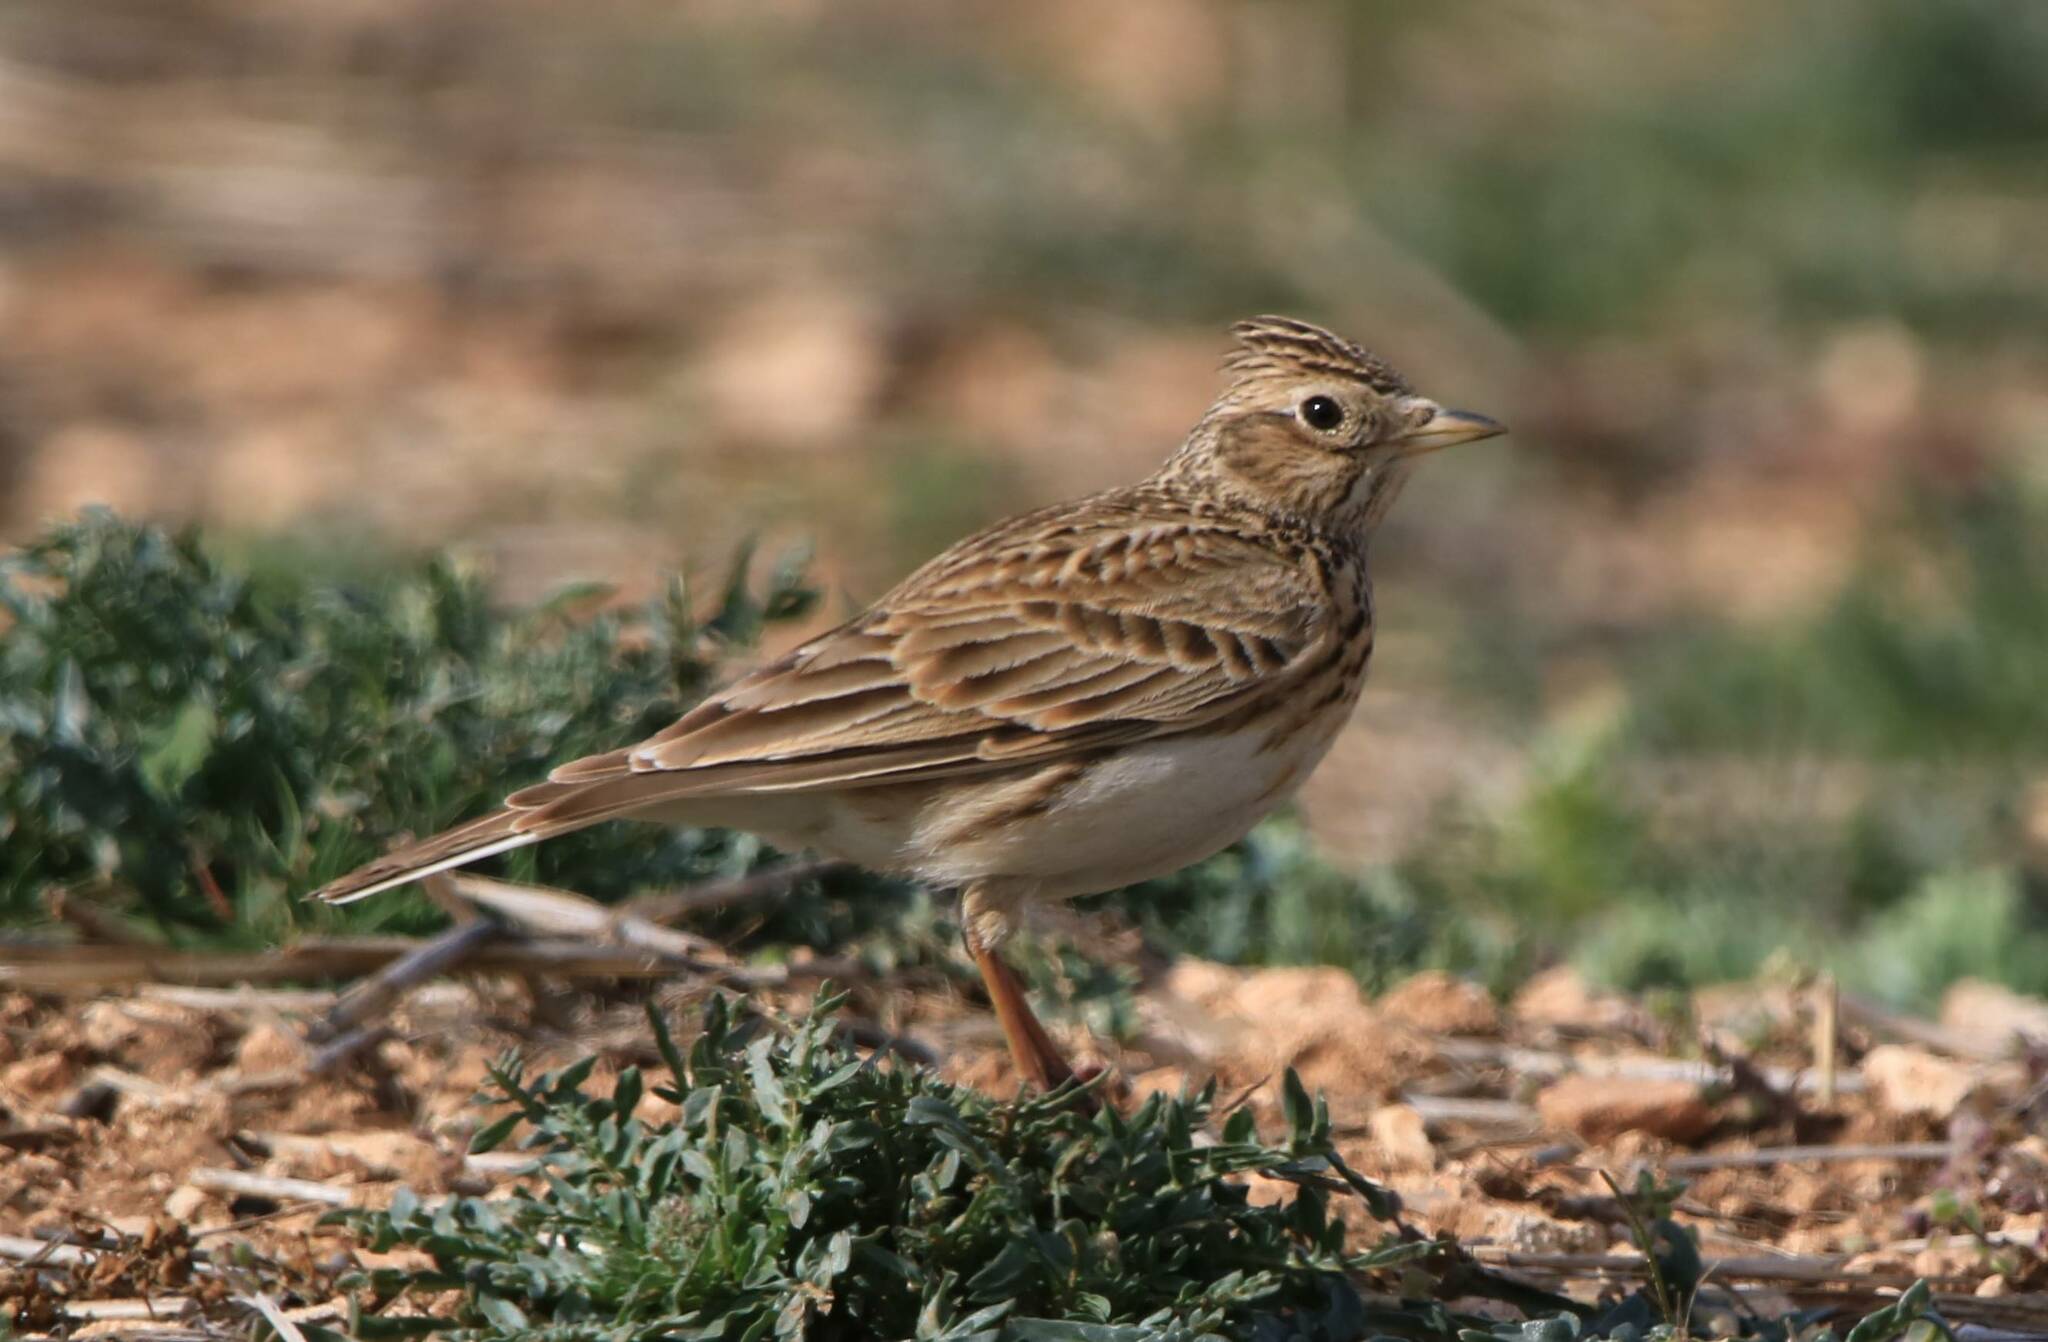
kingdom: Animalia
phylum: Chordata
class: Aves
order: Passeriformes
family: Alaudidae
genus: Alauda
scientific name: Alauda arvensis
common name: Eurasian skylark
